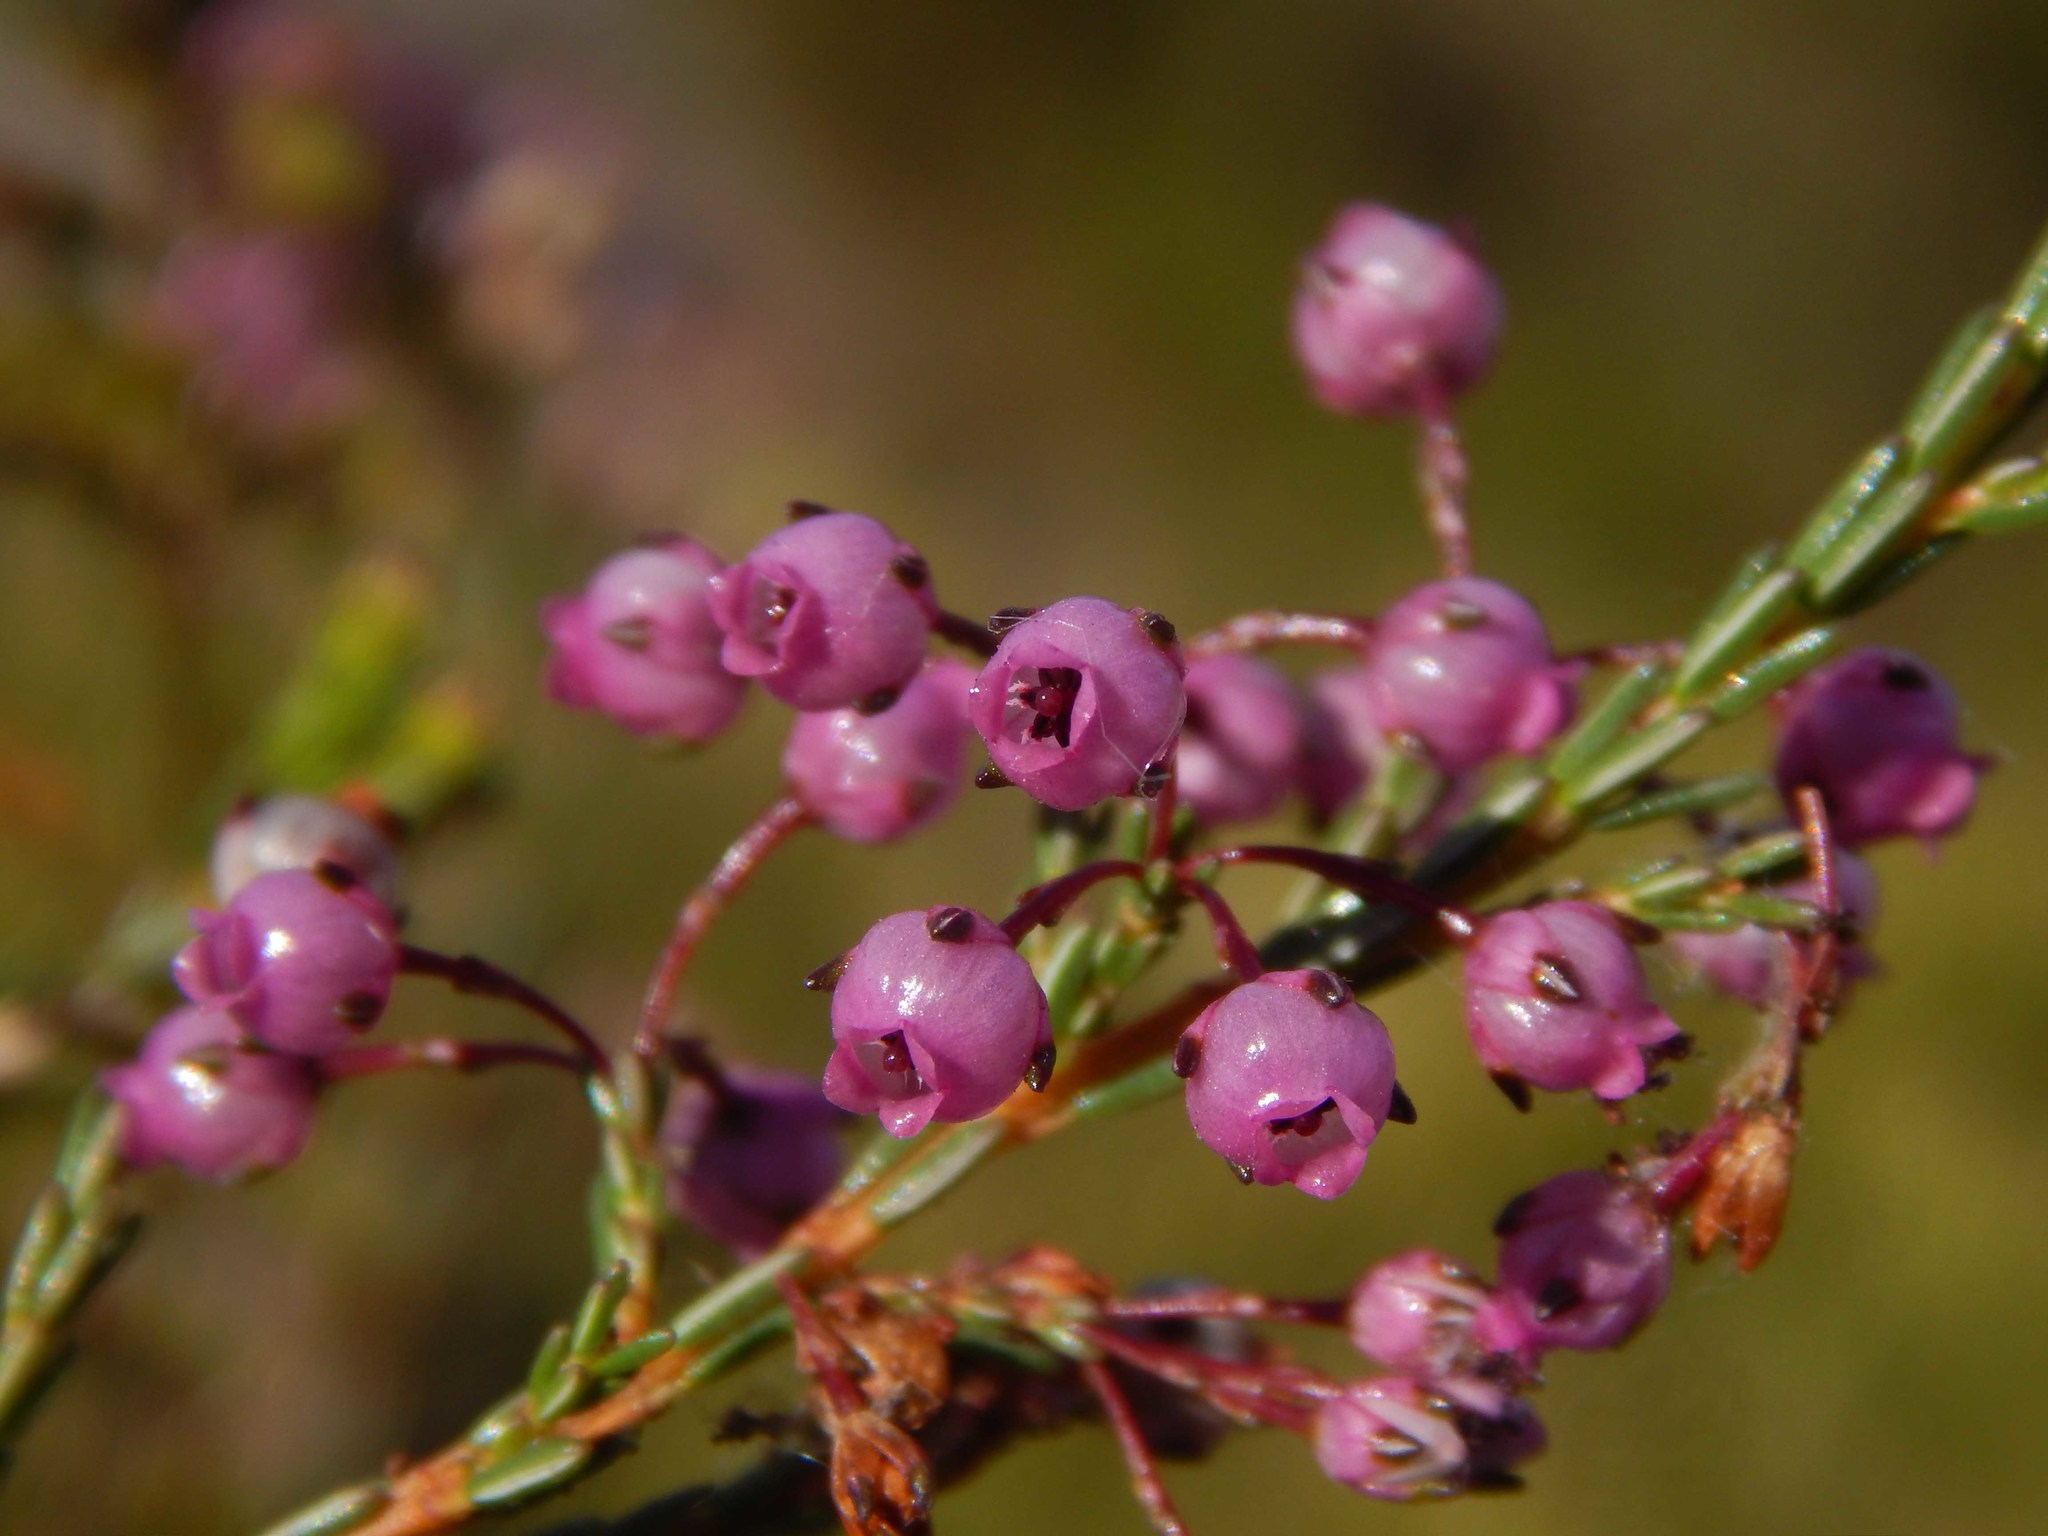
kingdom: Plantae
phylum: Tracheophyta
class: Magnoliopsida
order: Ericales
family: Ericaceae
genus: Erica
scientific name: Erica ferrea
